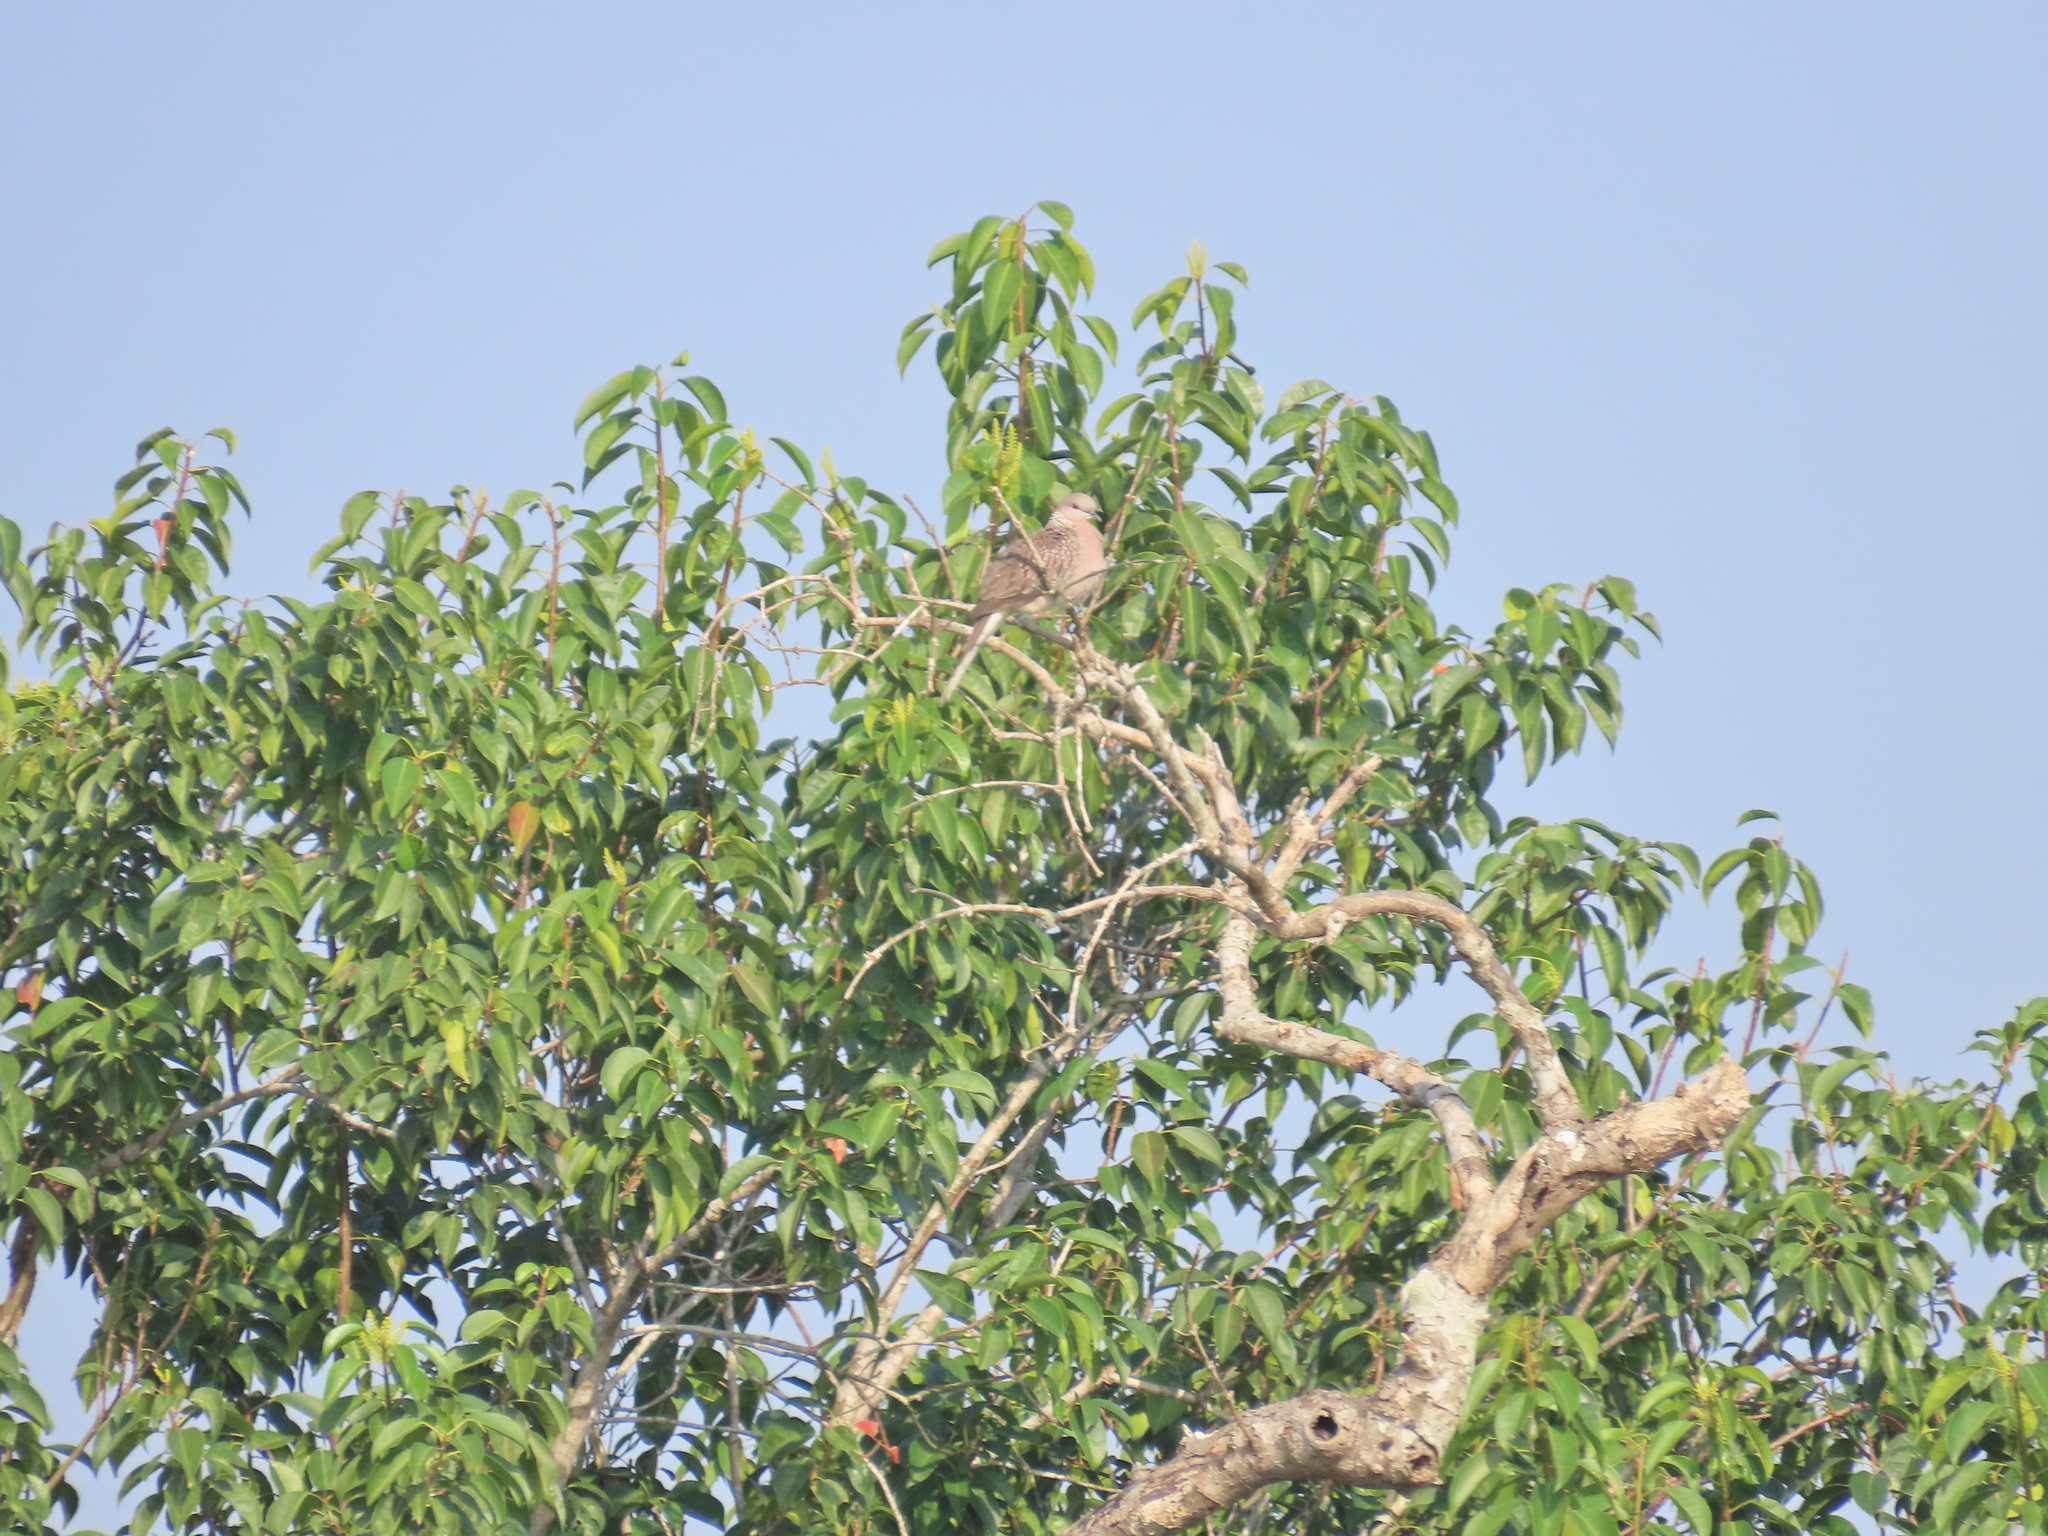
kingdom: Animalia
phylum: Chordata
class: Aves
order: Columbiformes
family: Columbidae
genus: Spilopelia
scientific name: Spilopelia chinensis
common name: Spotted dove
